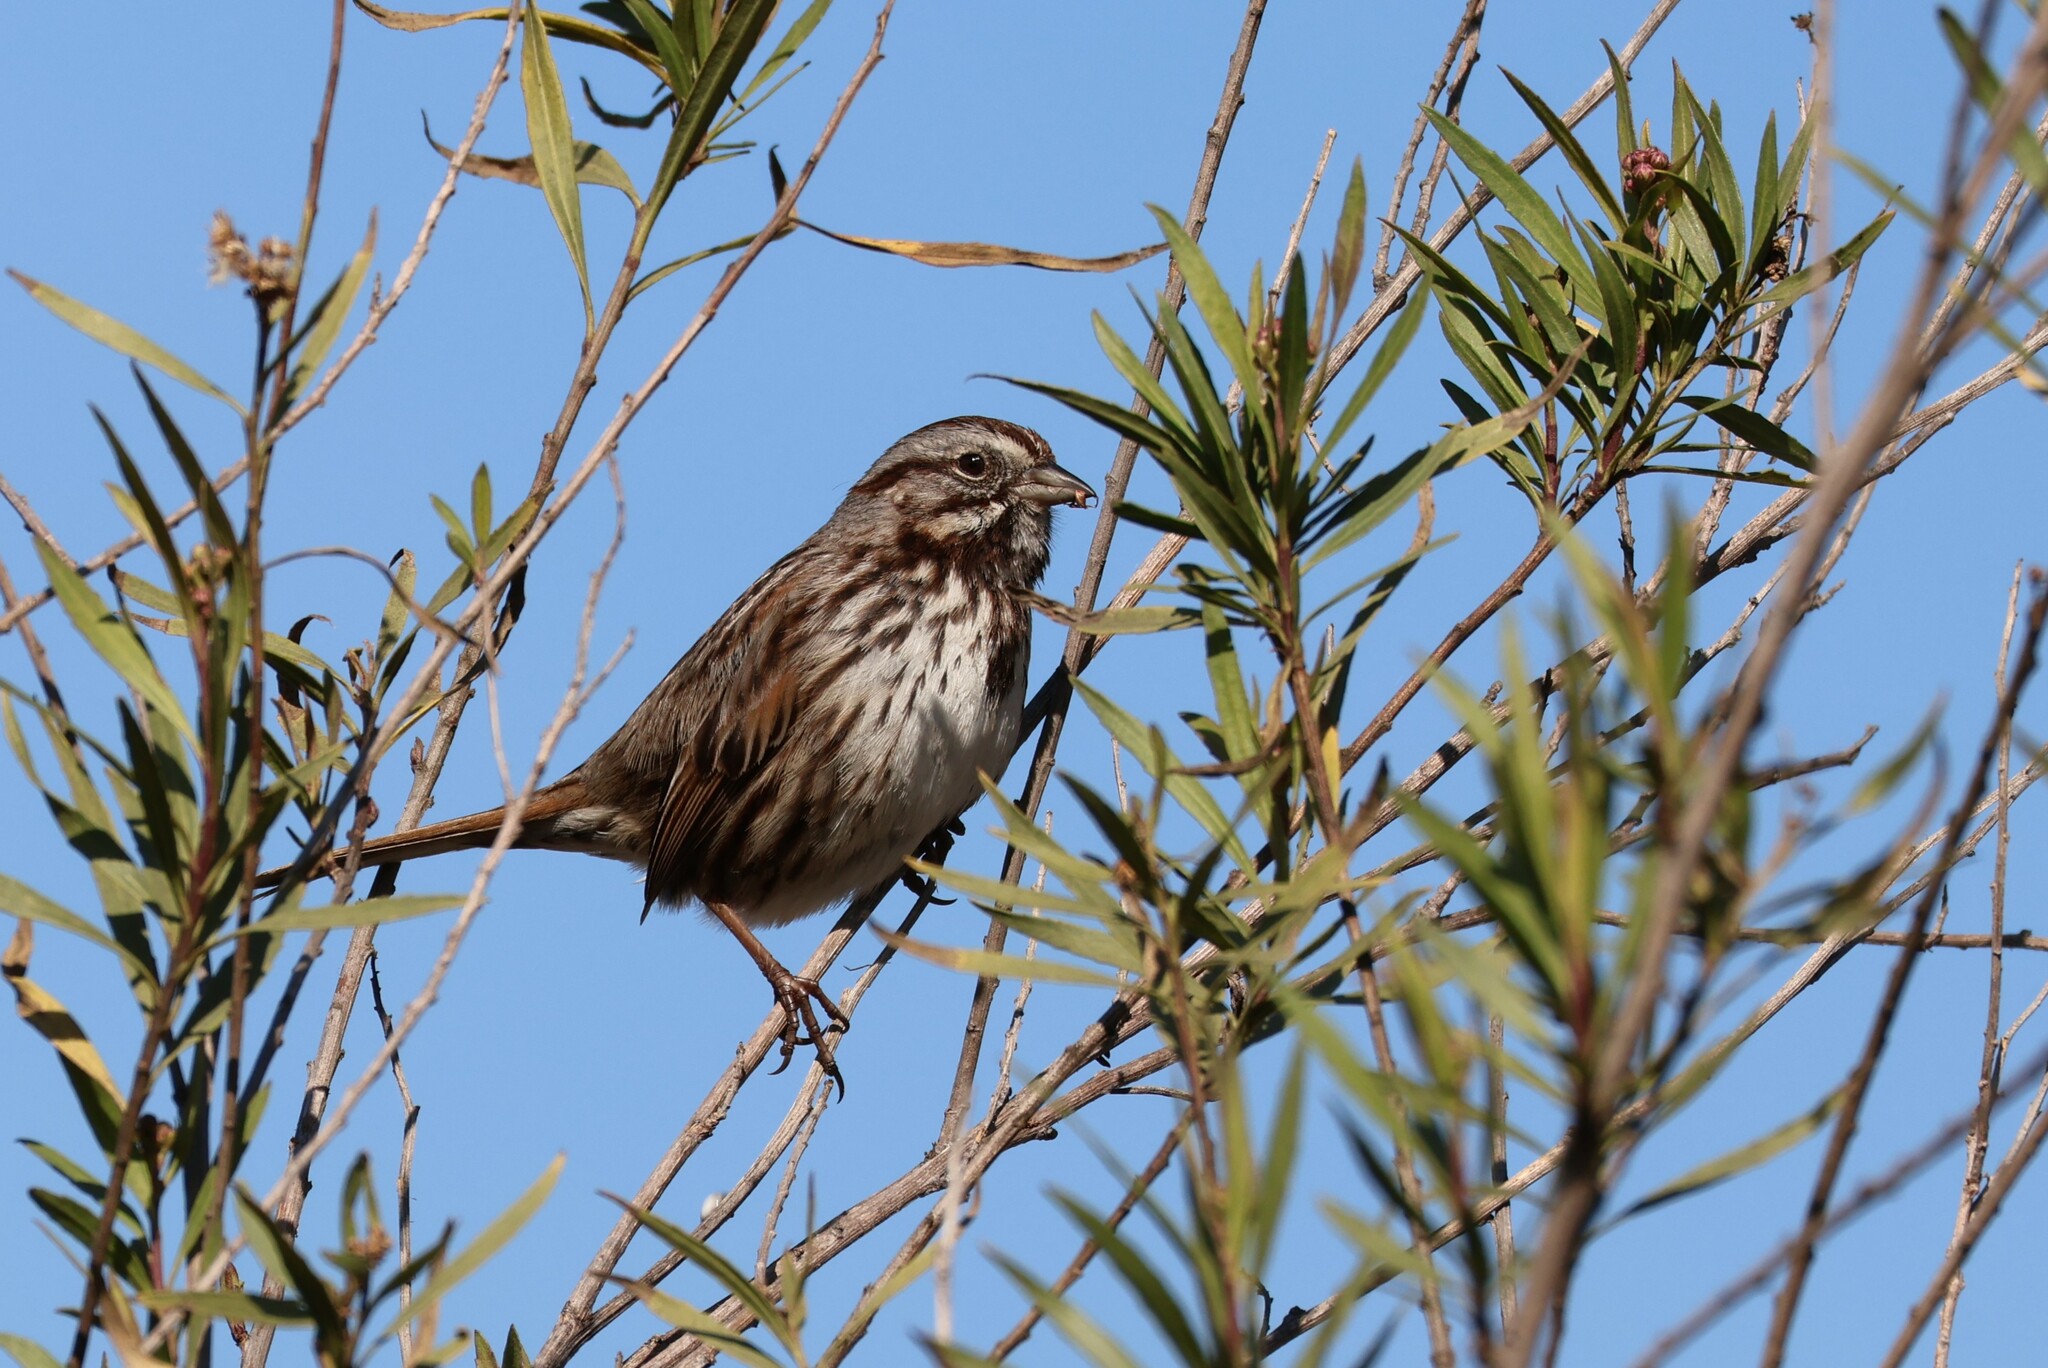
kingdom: Animalia
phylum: Chordata
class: Aves
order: Passeriformes
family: Passerellidae
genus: Melospiza
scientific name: Melospiza melodia
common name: Song sparrow
